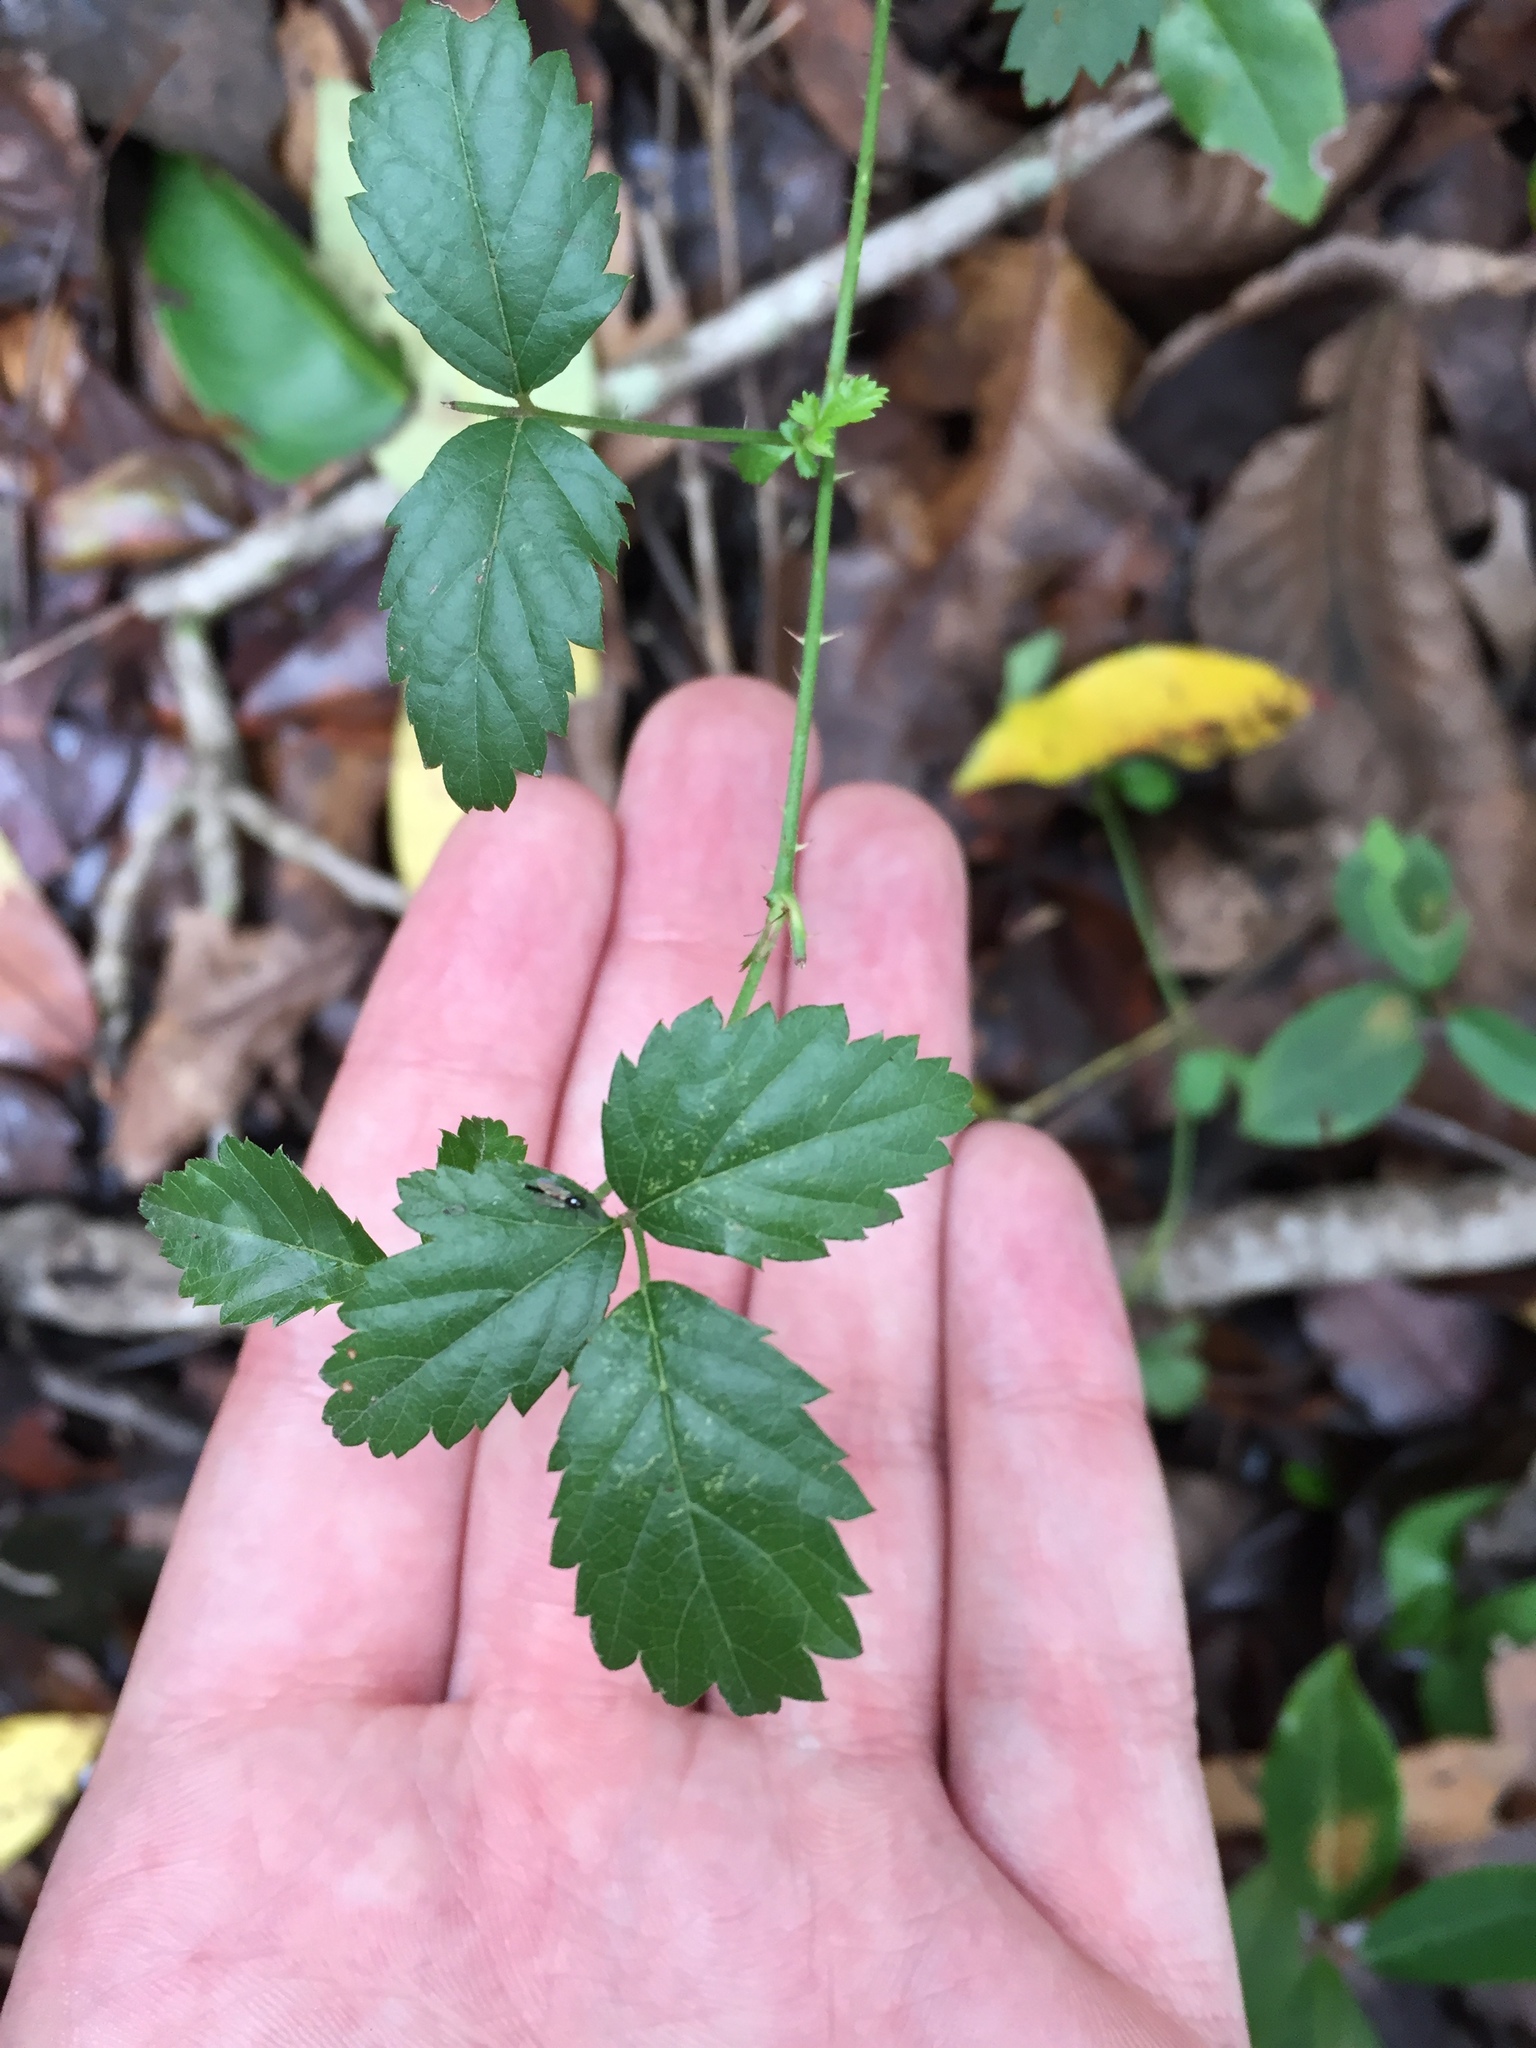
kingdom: Plantae
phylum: Tracheophyta
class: Magnoliopsida
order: Rosales
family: Rosaceae
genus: Rubus
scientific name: Rubus trivialis
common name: Southern dewberry
